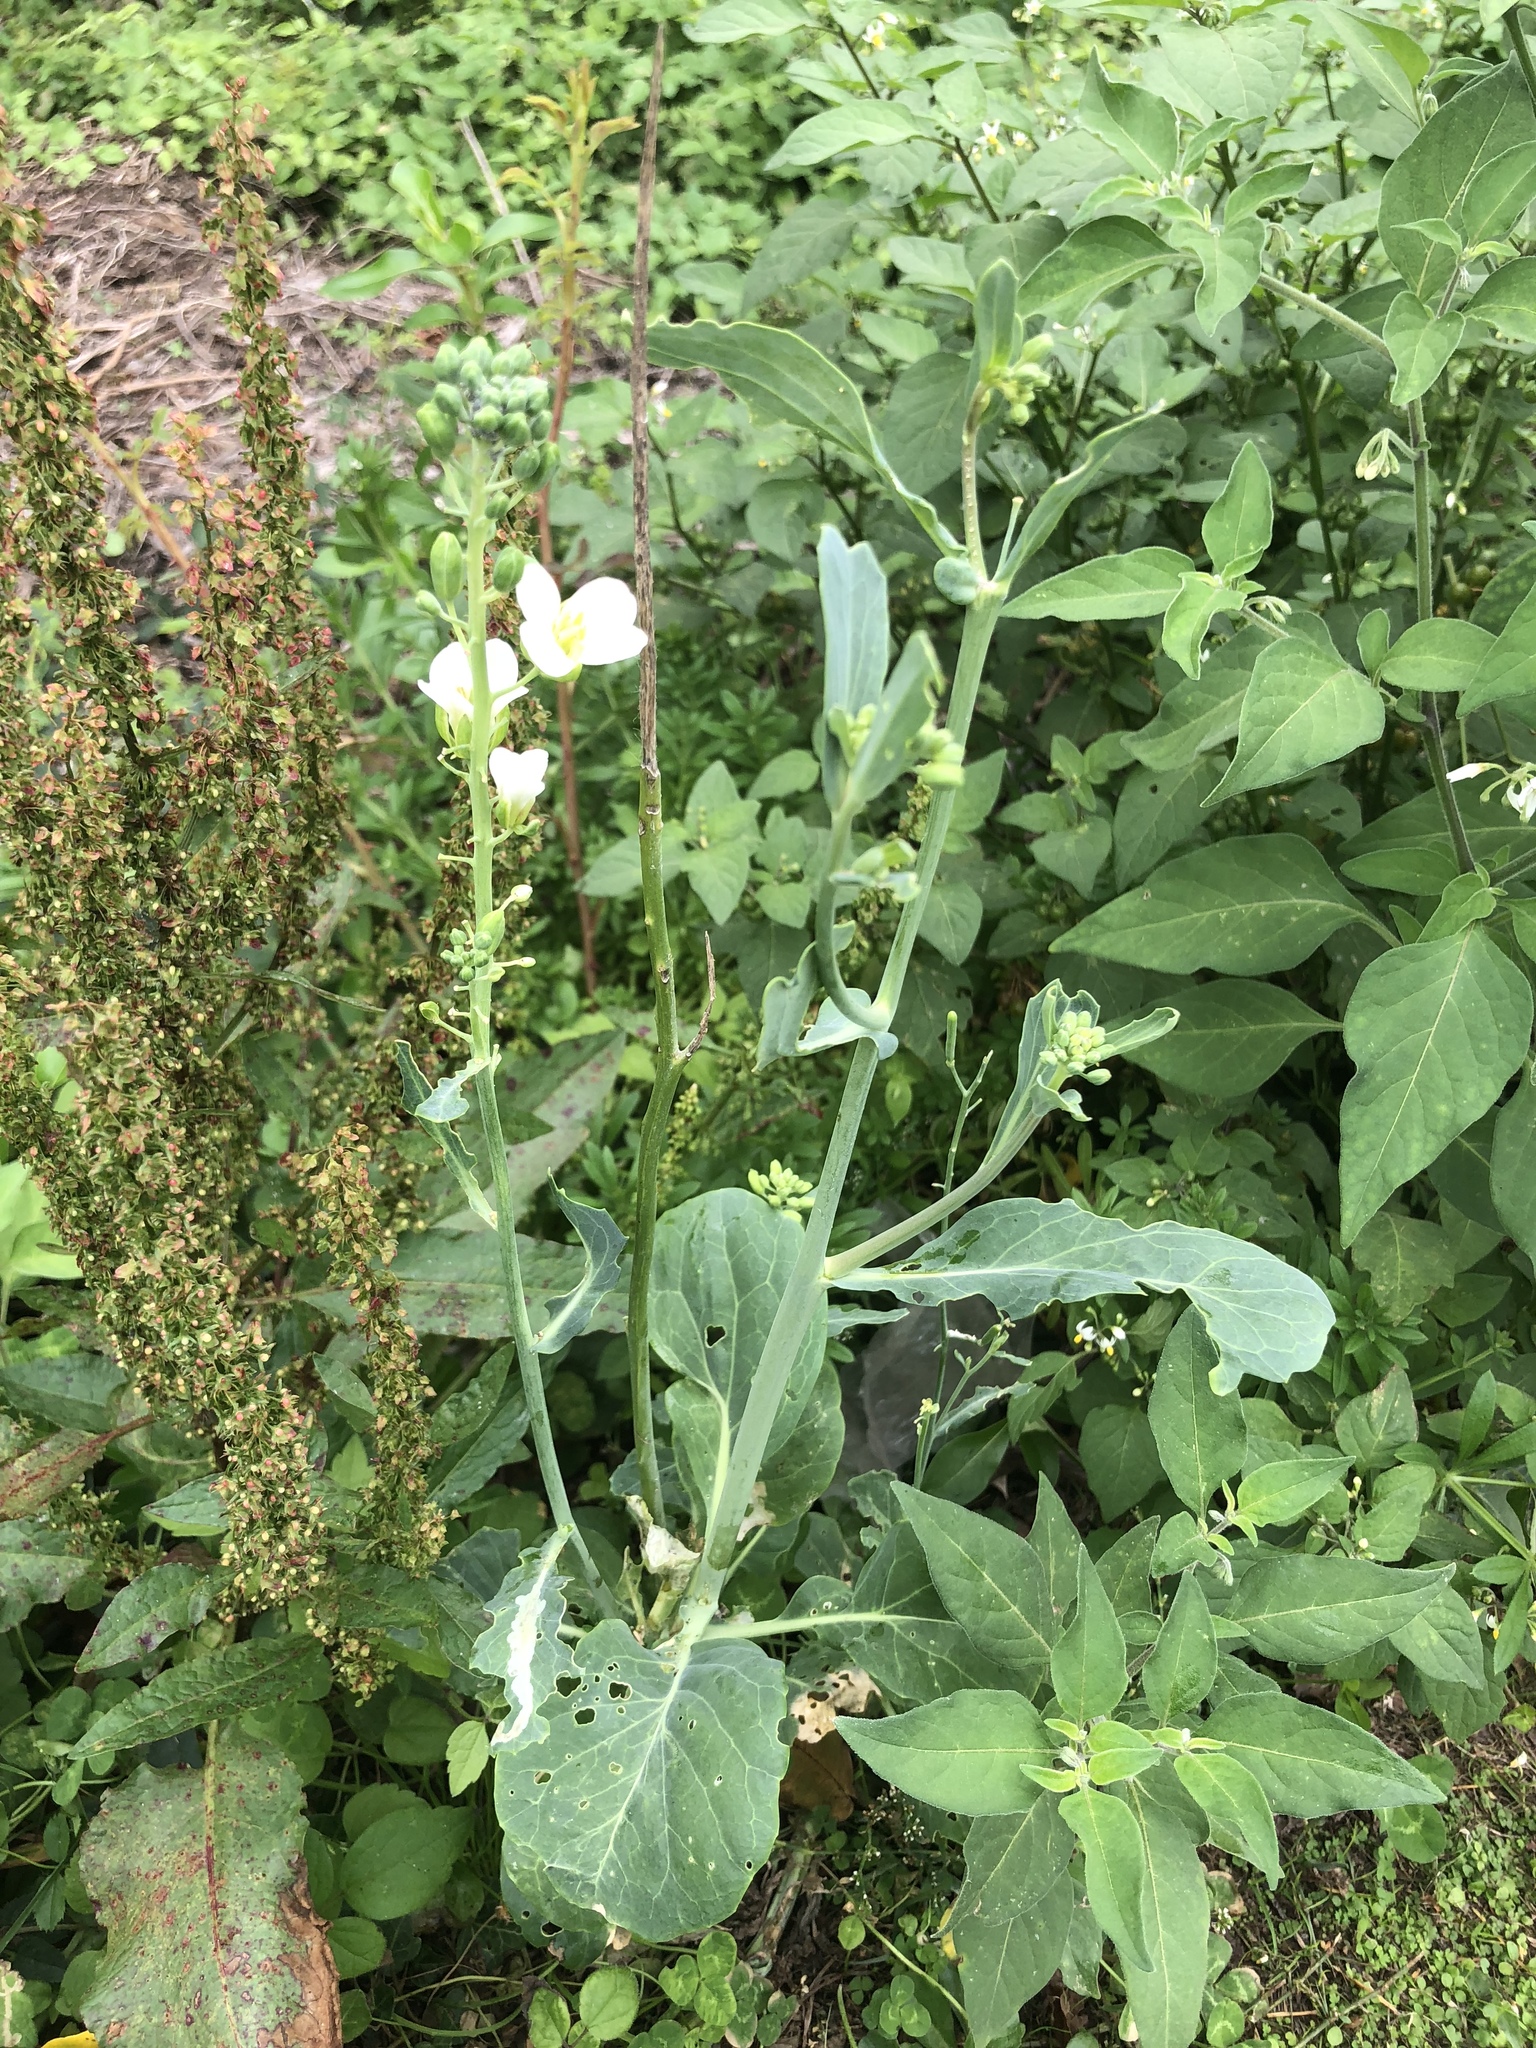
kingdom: Plantae
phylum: Tracheophyta
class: Magnoliopsida
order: Brassicales
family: Brassicaceae
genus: Brassica
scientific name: Brassica oleracea
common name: Cabbage
